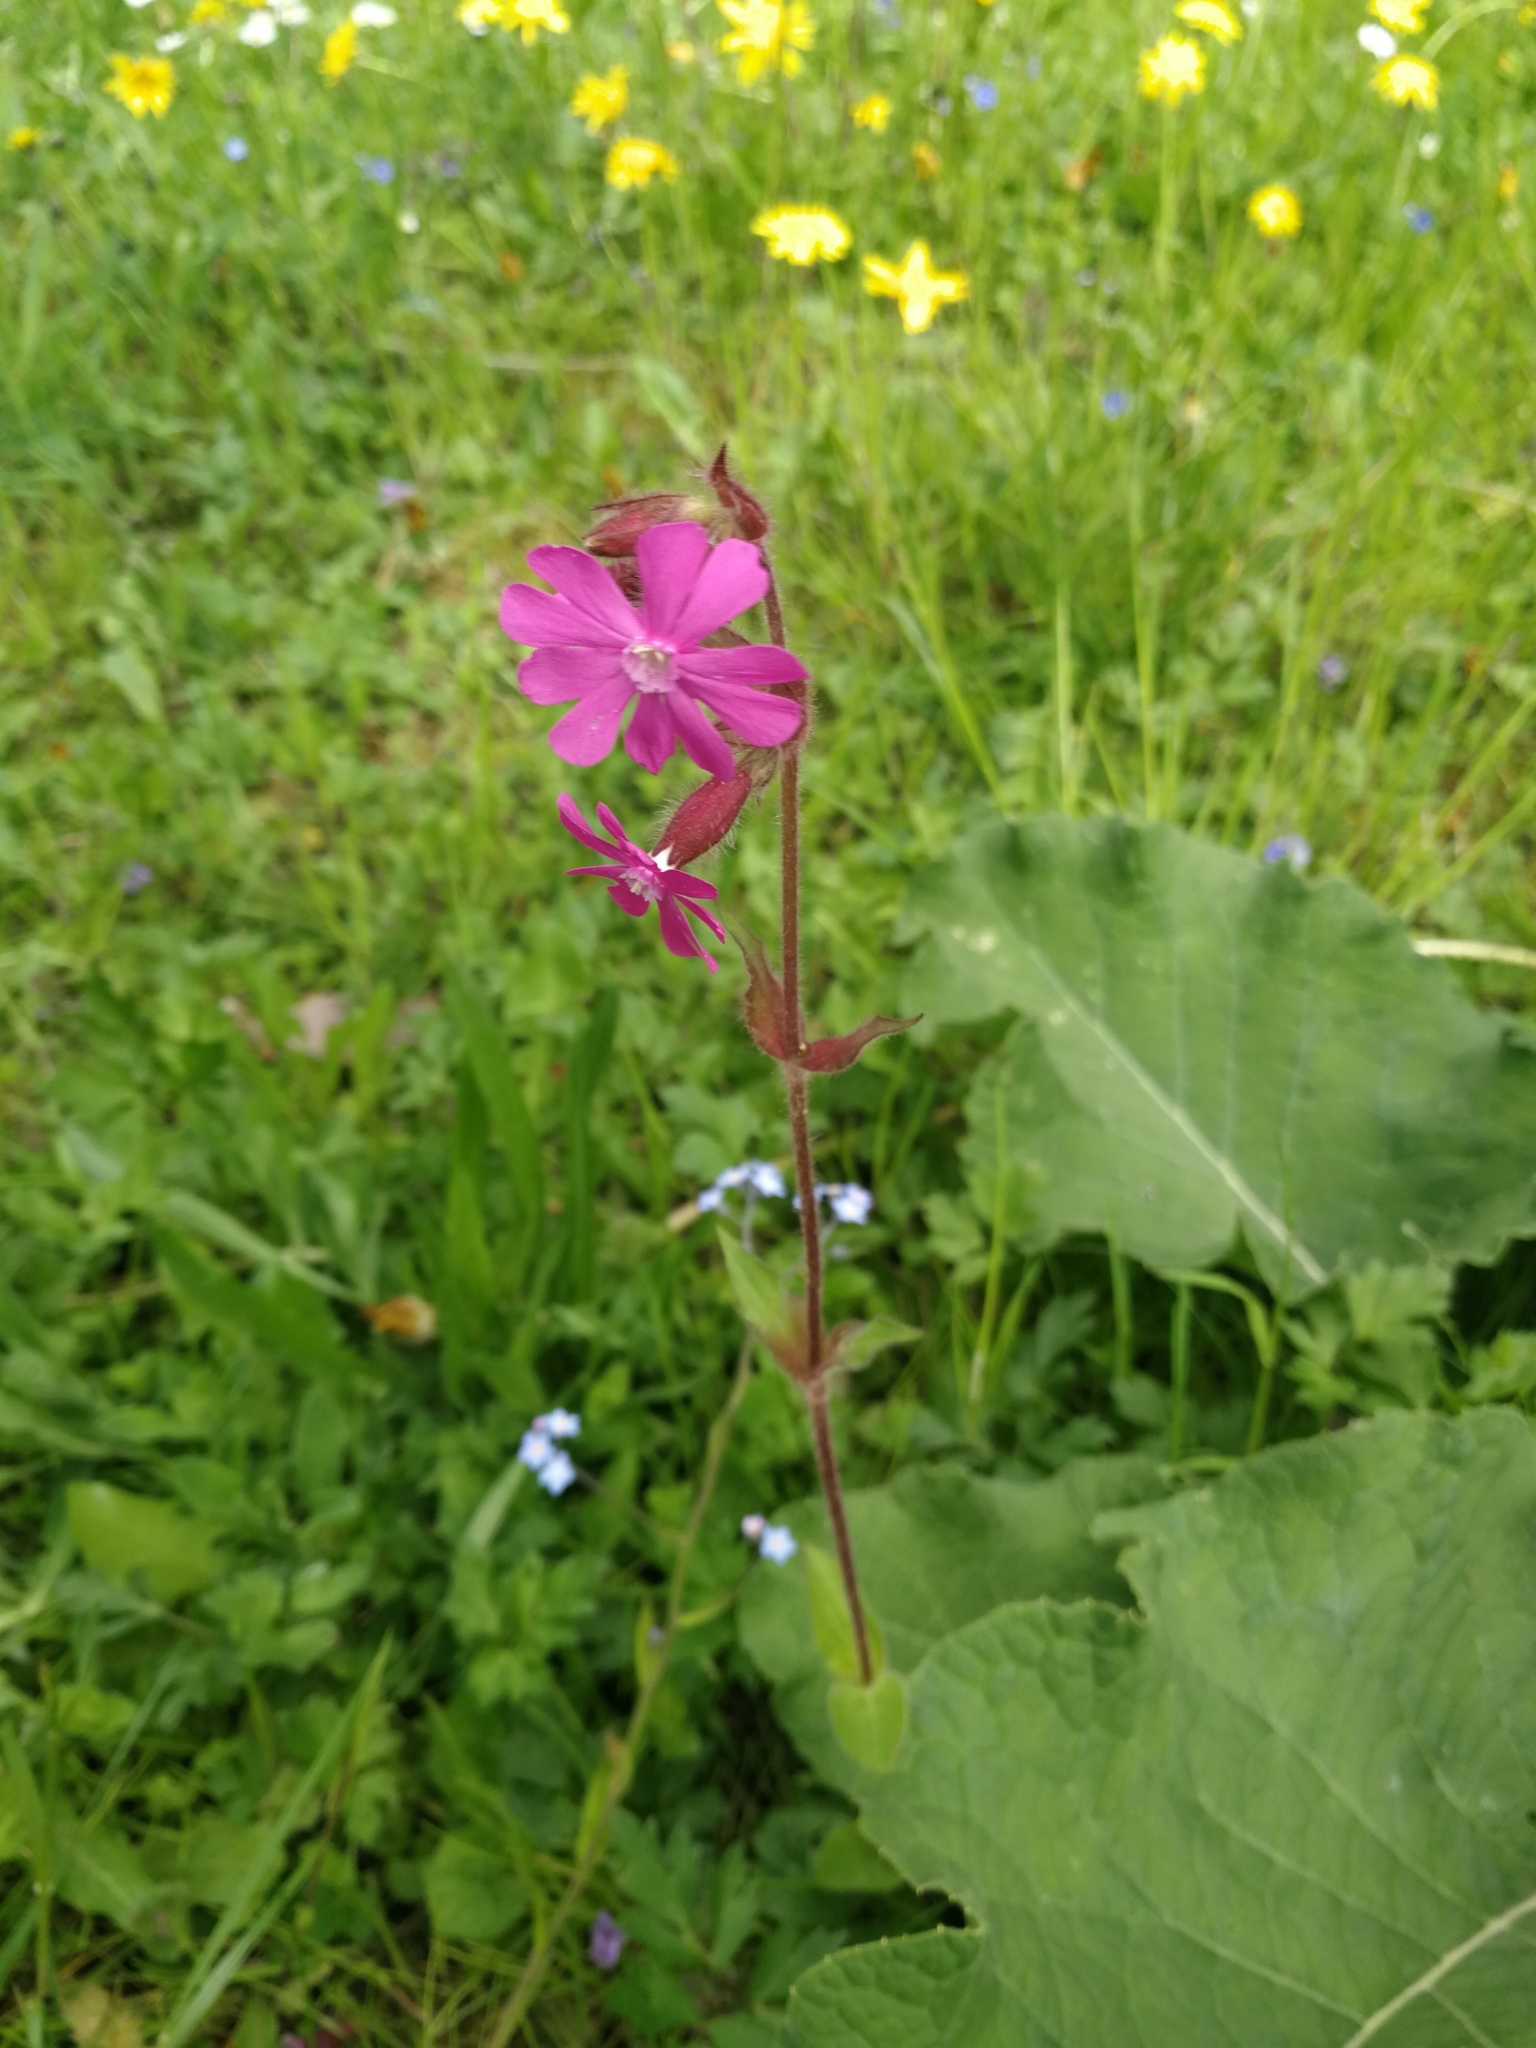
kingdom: Plantae
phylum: Tracheophyta
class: Magnoliopsida
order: Caryophyllales
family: Caryophyllaceae
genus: Silene
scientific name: Silene dioica
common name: Red campion
